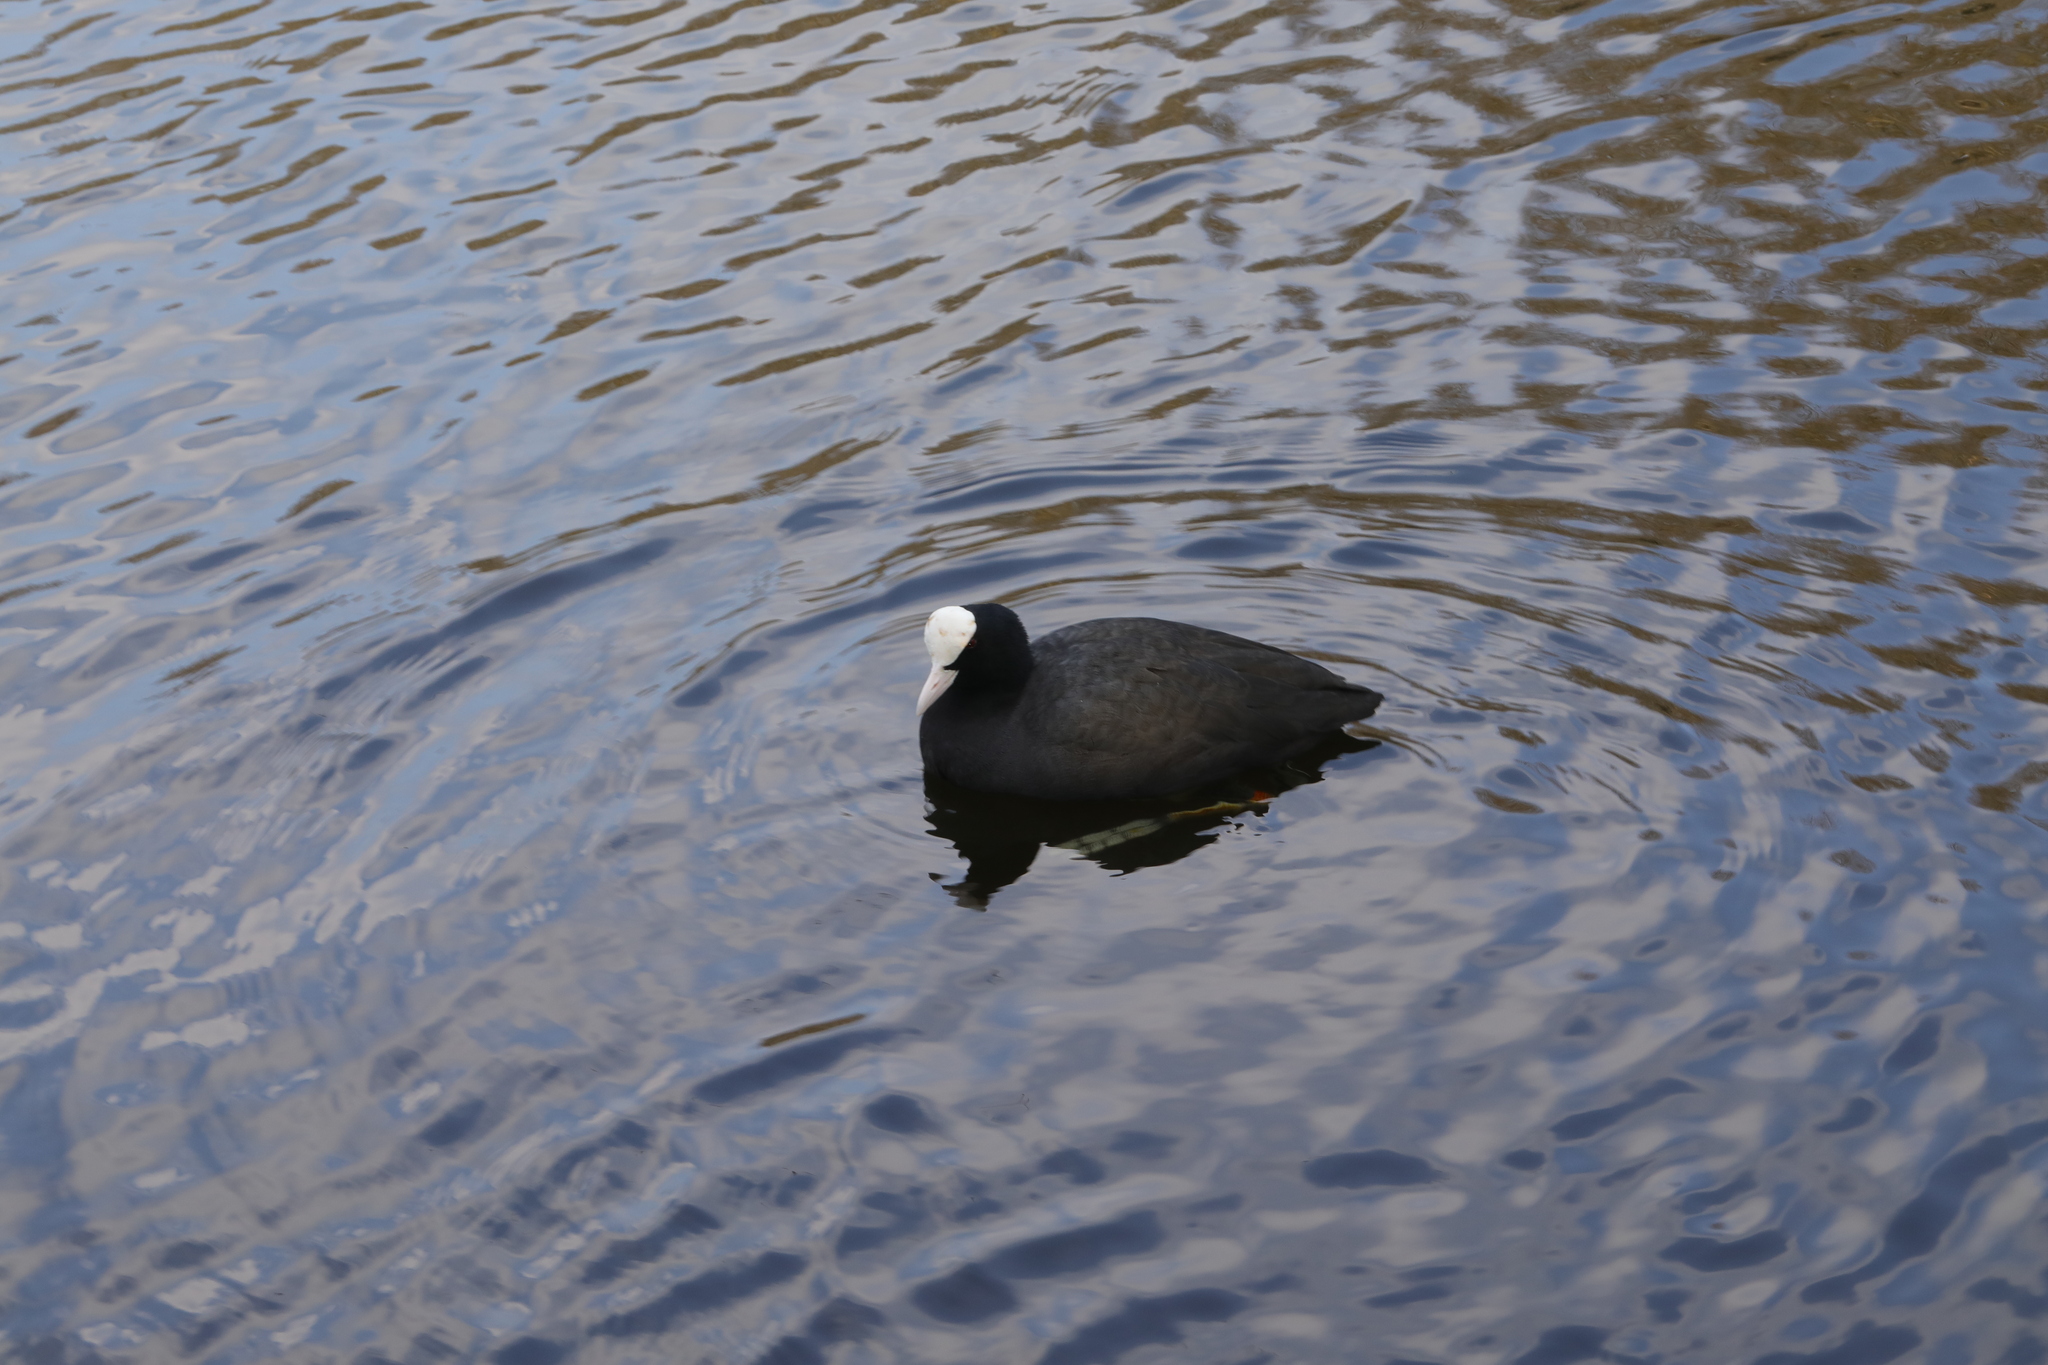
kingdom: Animalia
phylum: Chordata
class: Aves
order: Gruiformes
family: Rallidae
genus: Fulica
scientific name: Fulica atra
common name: Eurasian coot
